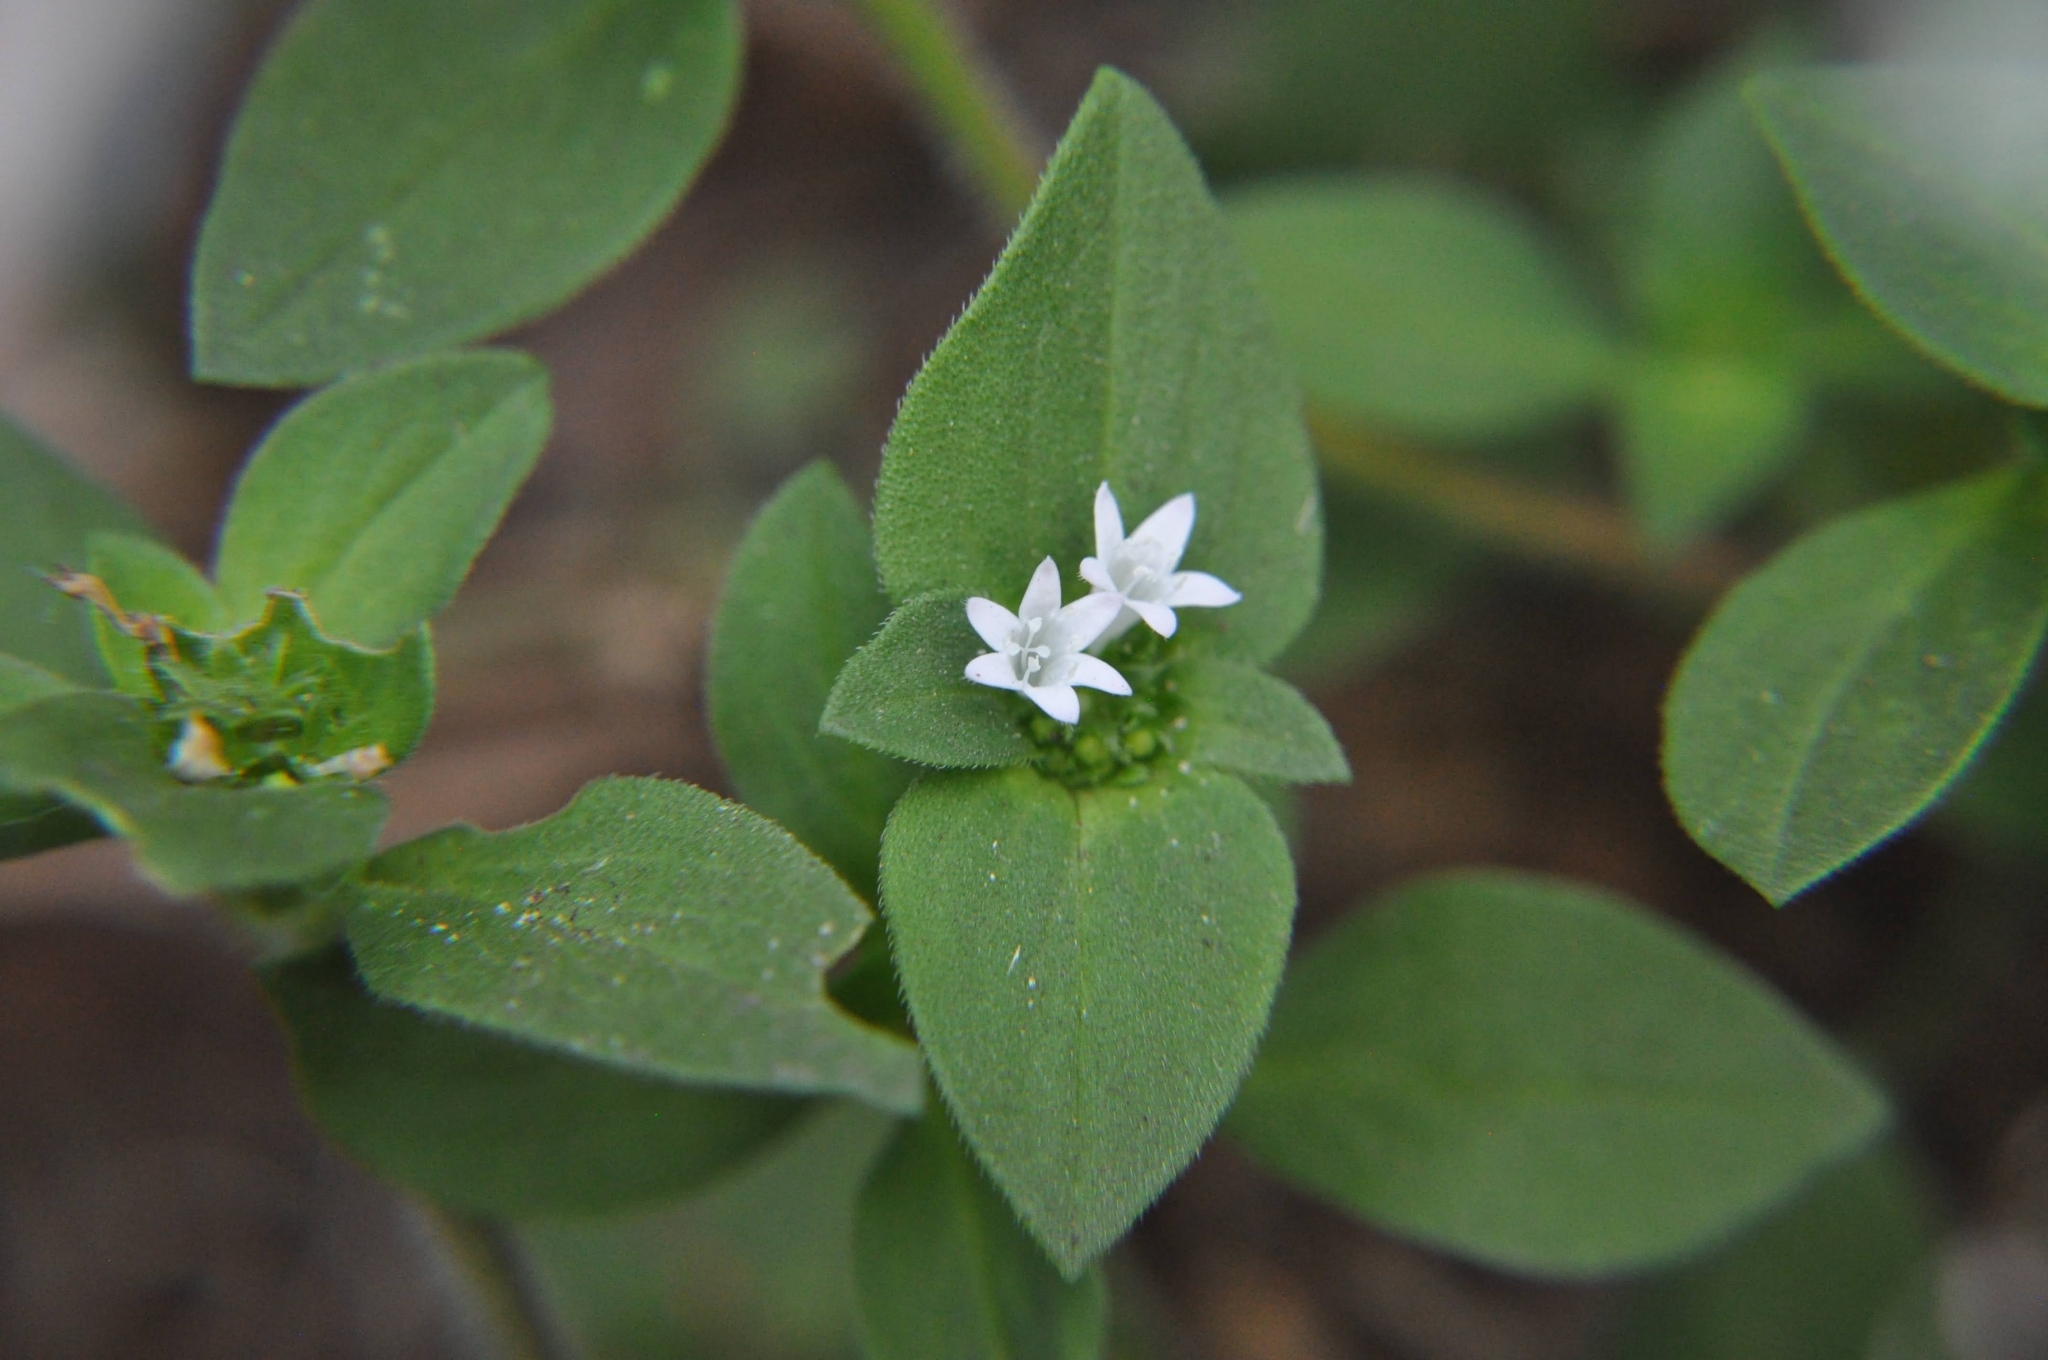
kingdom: Plantae
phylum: Tracheophyta
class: Magnoliopsida
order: Gentianales
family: Rubiaceae
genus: Richardia
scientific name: Richardia brasiliensis
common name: Tropical mexican clover
